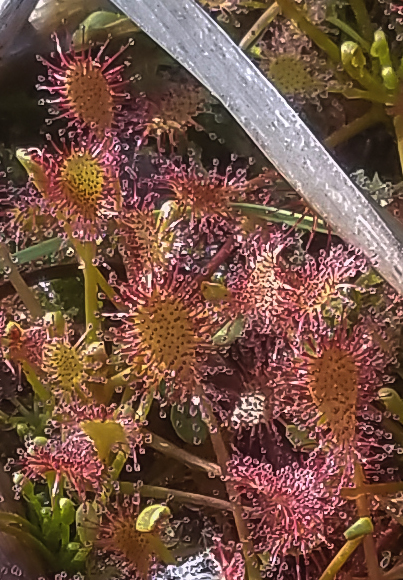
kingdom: Plantae
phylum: Tracheophyta
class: Magnoliopsida
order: Caryophyllales
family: Droseraceae
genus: Drosera
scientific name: Drosera intermedia
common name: Oblong-leaved sundew
